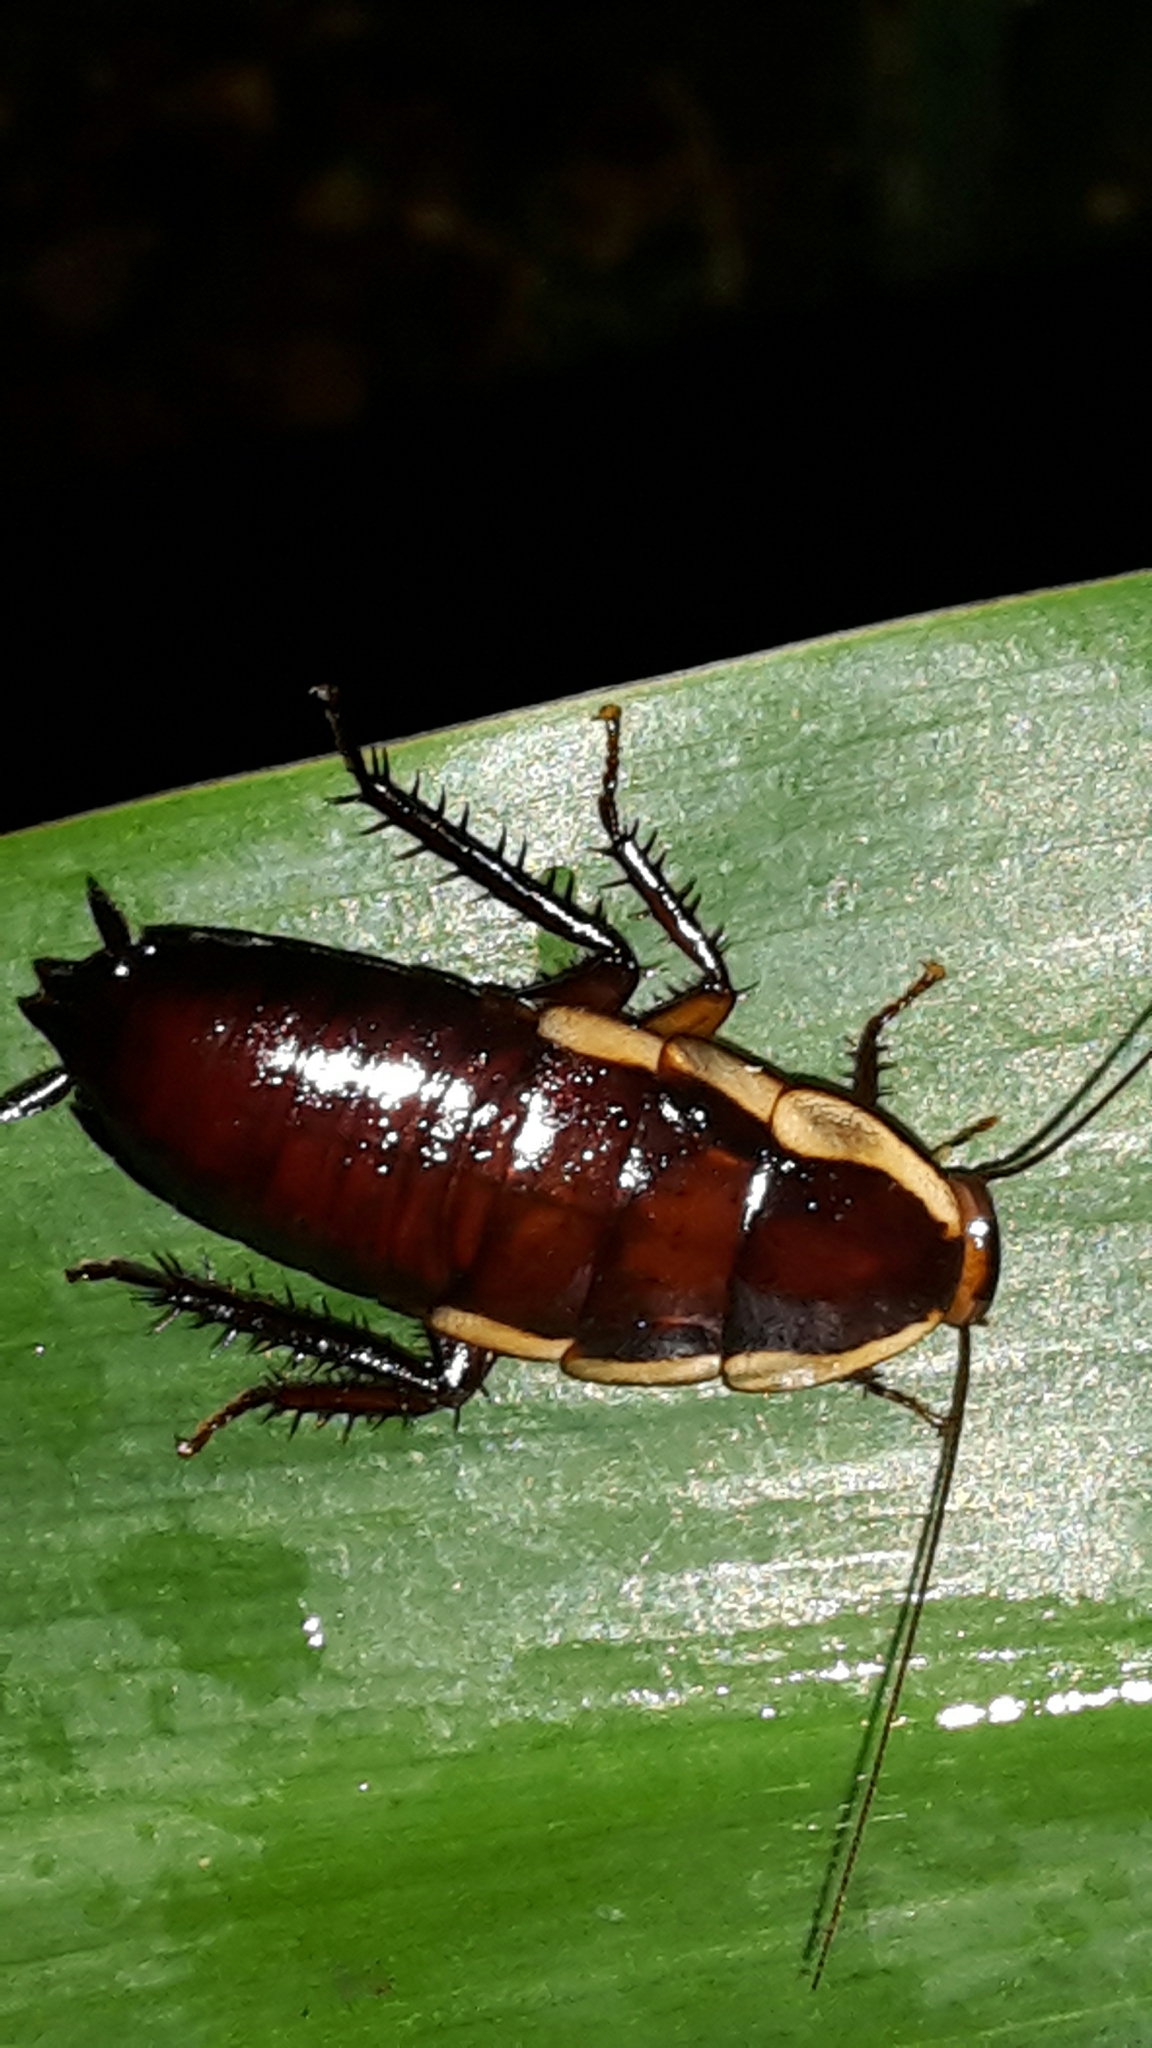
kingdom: Animalia
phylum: Arthropoda
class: Insecta
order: Blattodea
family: Blattidae
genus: Drymaplaneta
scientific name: Drymaplaneta semivitta
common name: Gisborne cockroach
